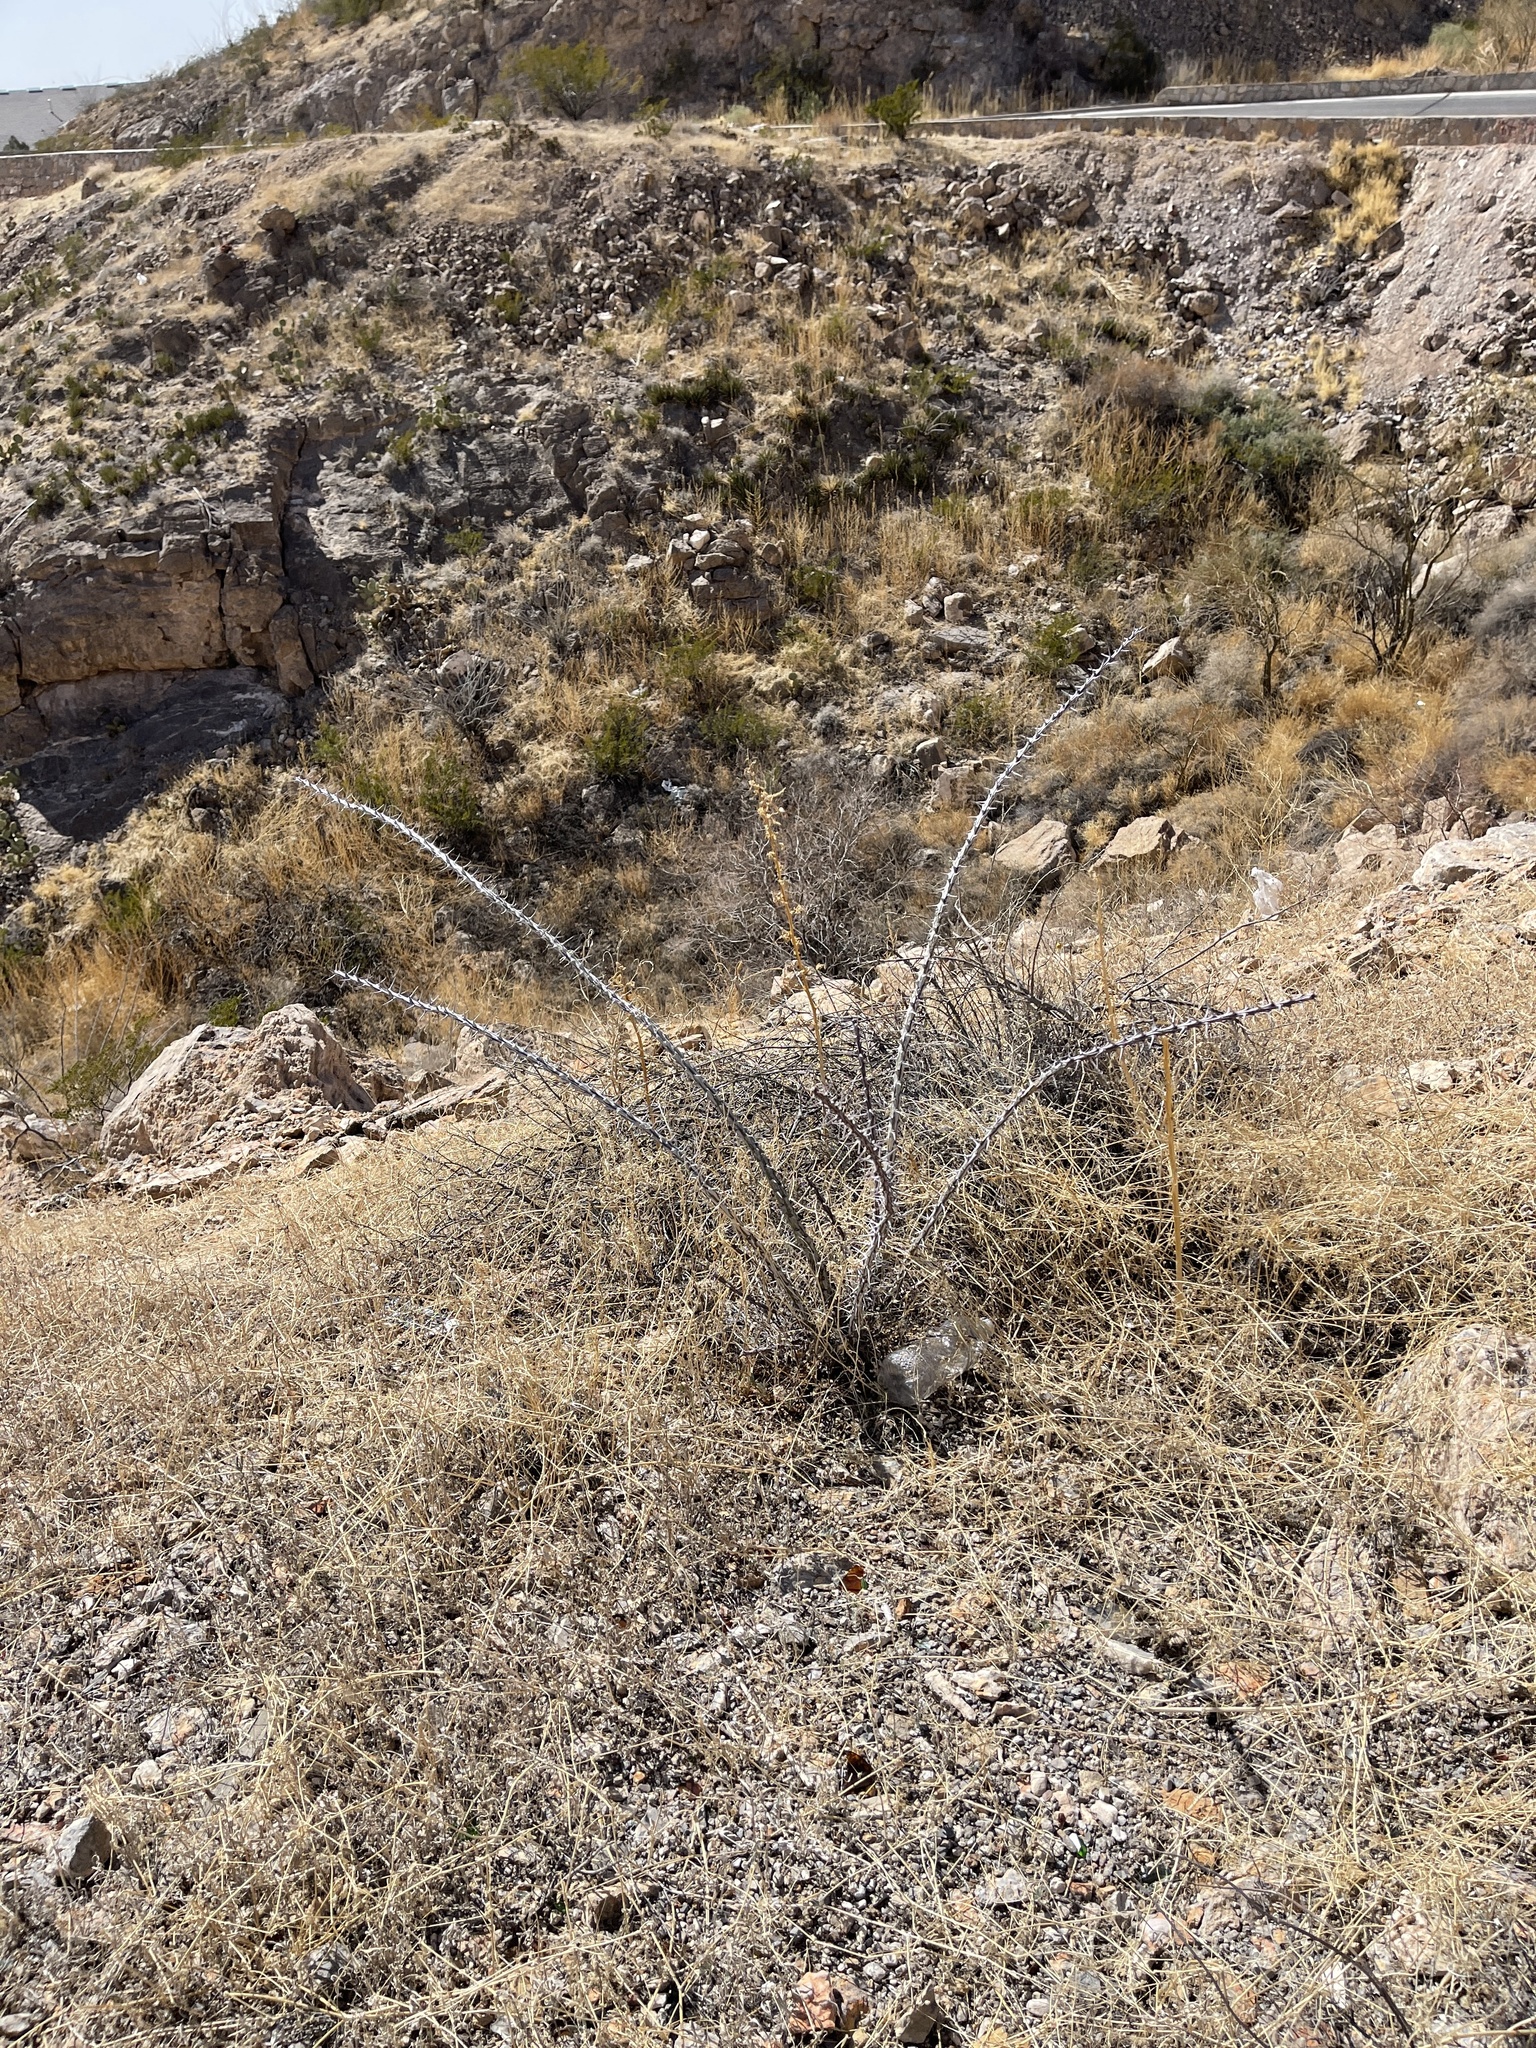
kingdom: Plantae
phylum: Tracheophyta
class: Magnoliopsida
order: Ericales
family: Fouquieriaceae
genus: Fouquieria
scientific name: Fouquieria splendens
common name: Vine-cactus
